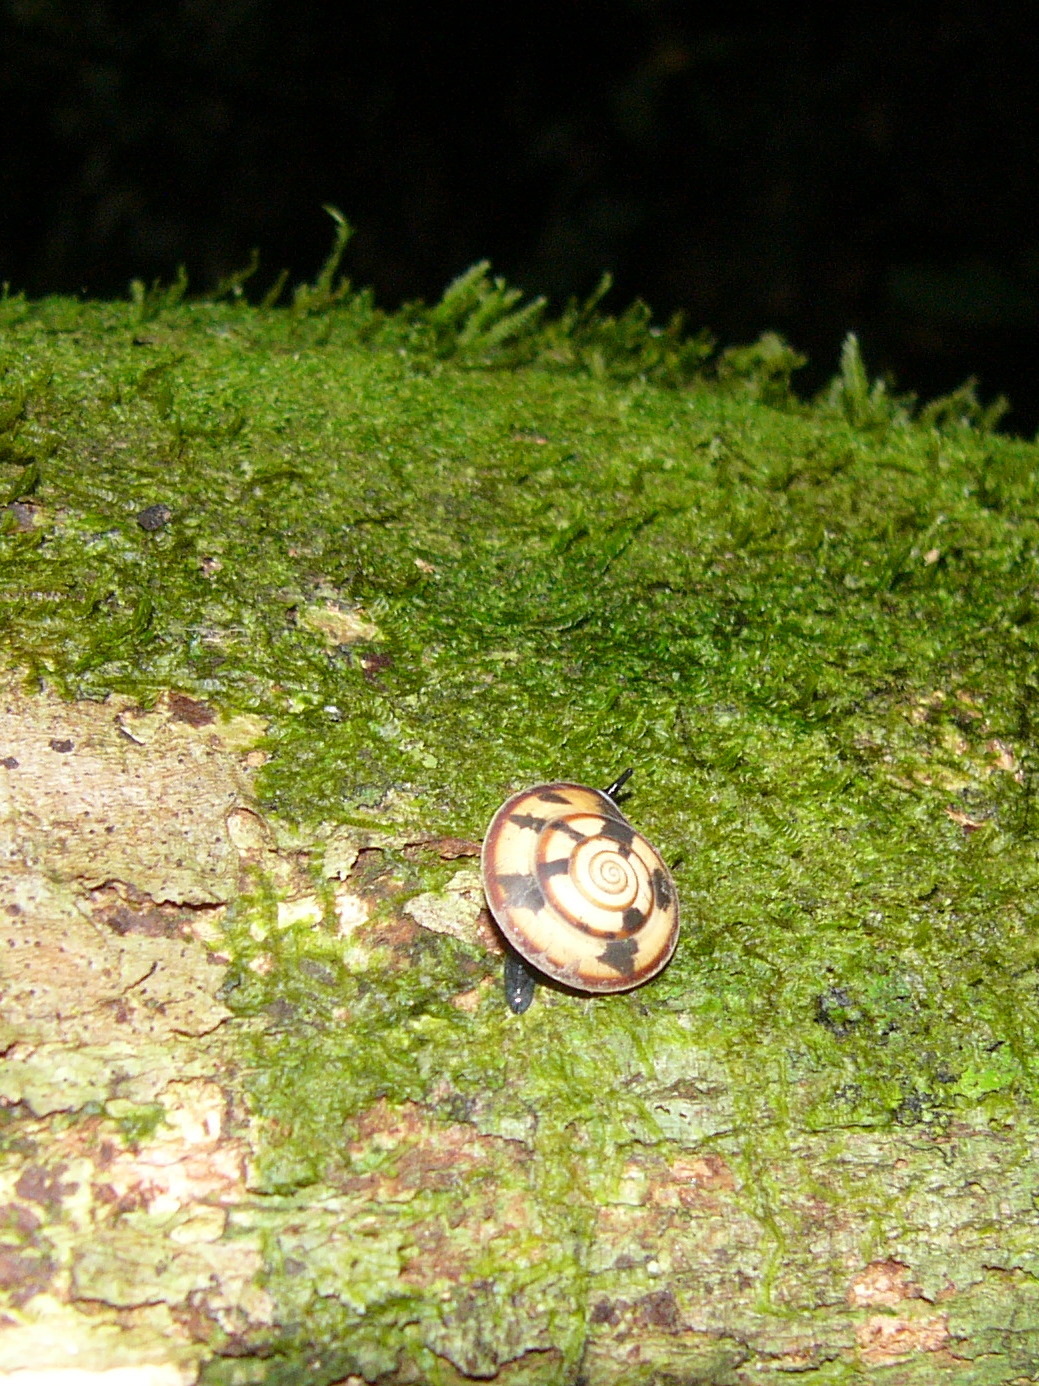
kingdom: Animalia
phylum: Mollusca
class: Gastropoda
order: Stylommatophora
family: Trochomorphidae
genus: Videna
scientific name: Videna metcalfii
